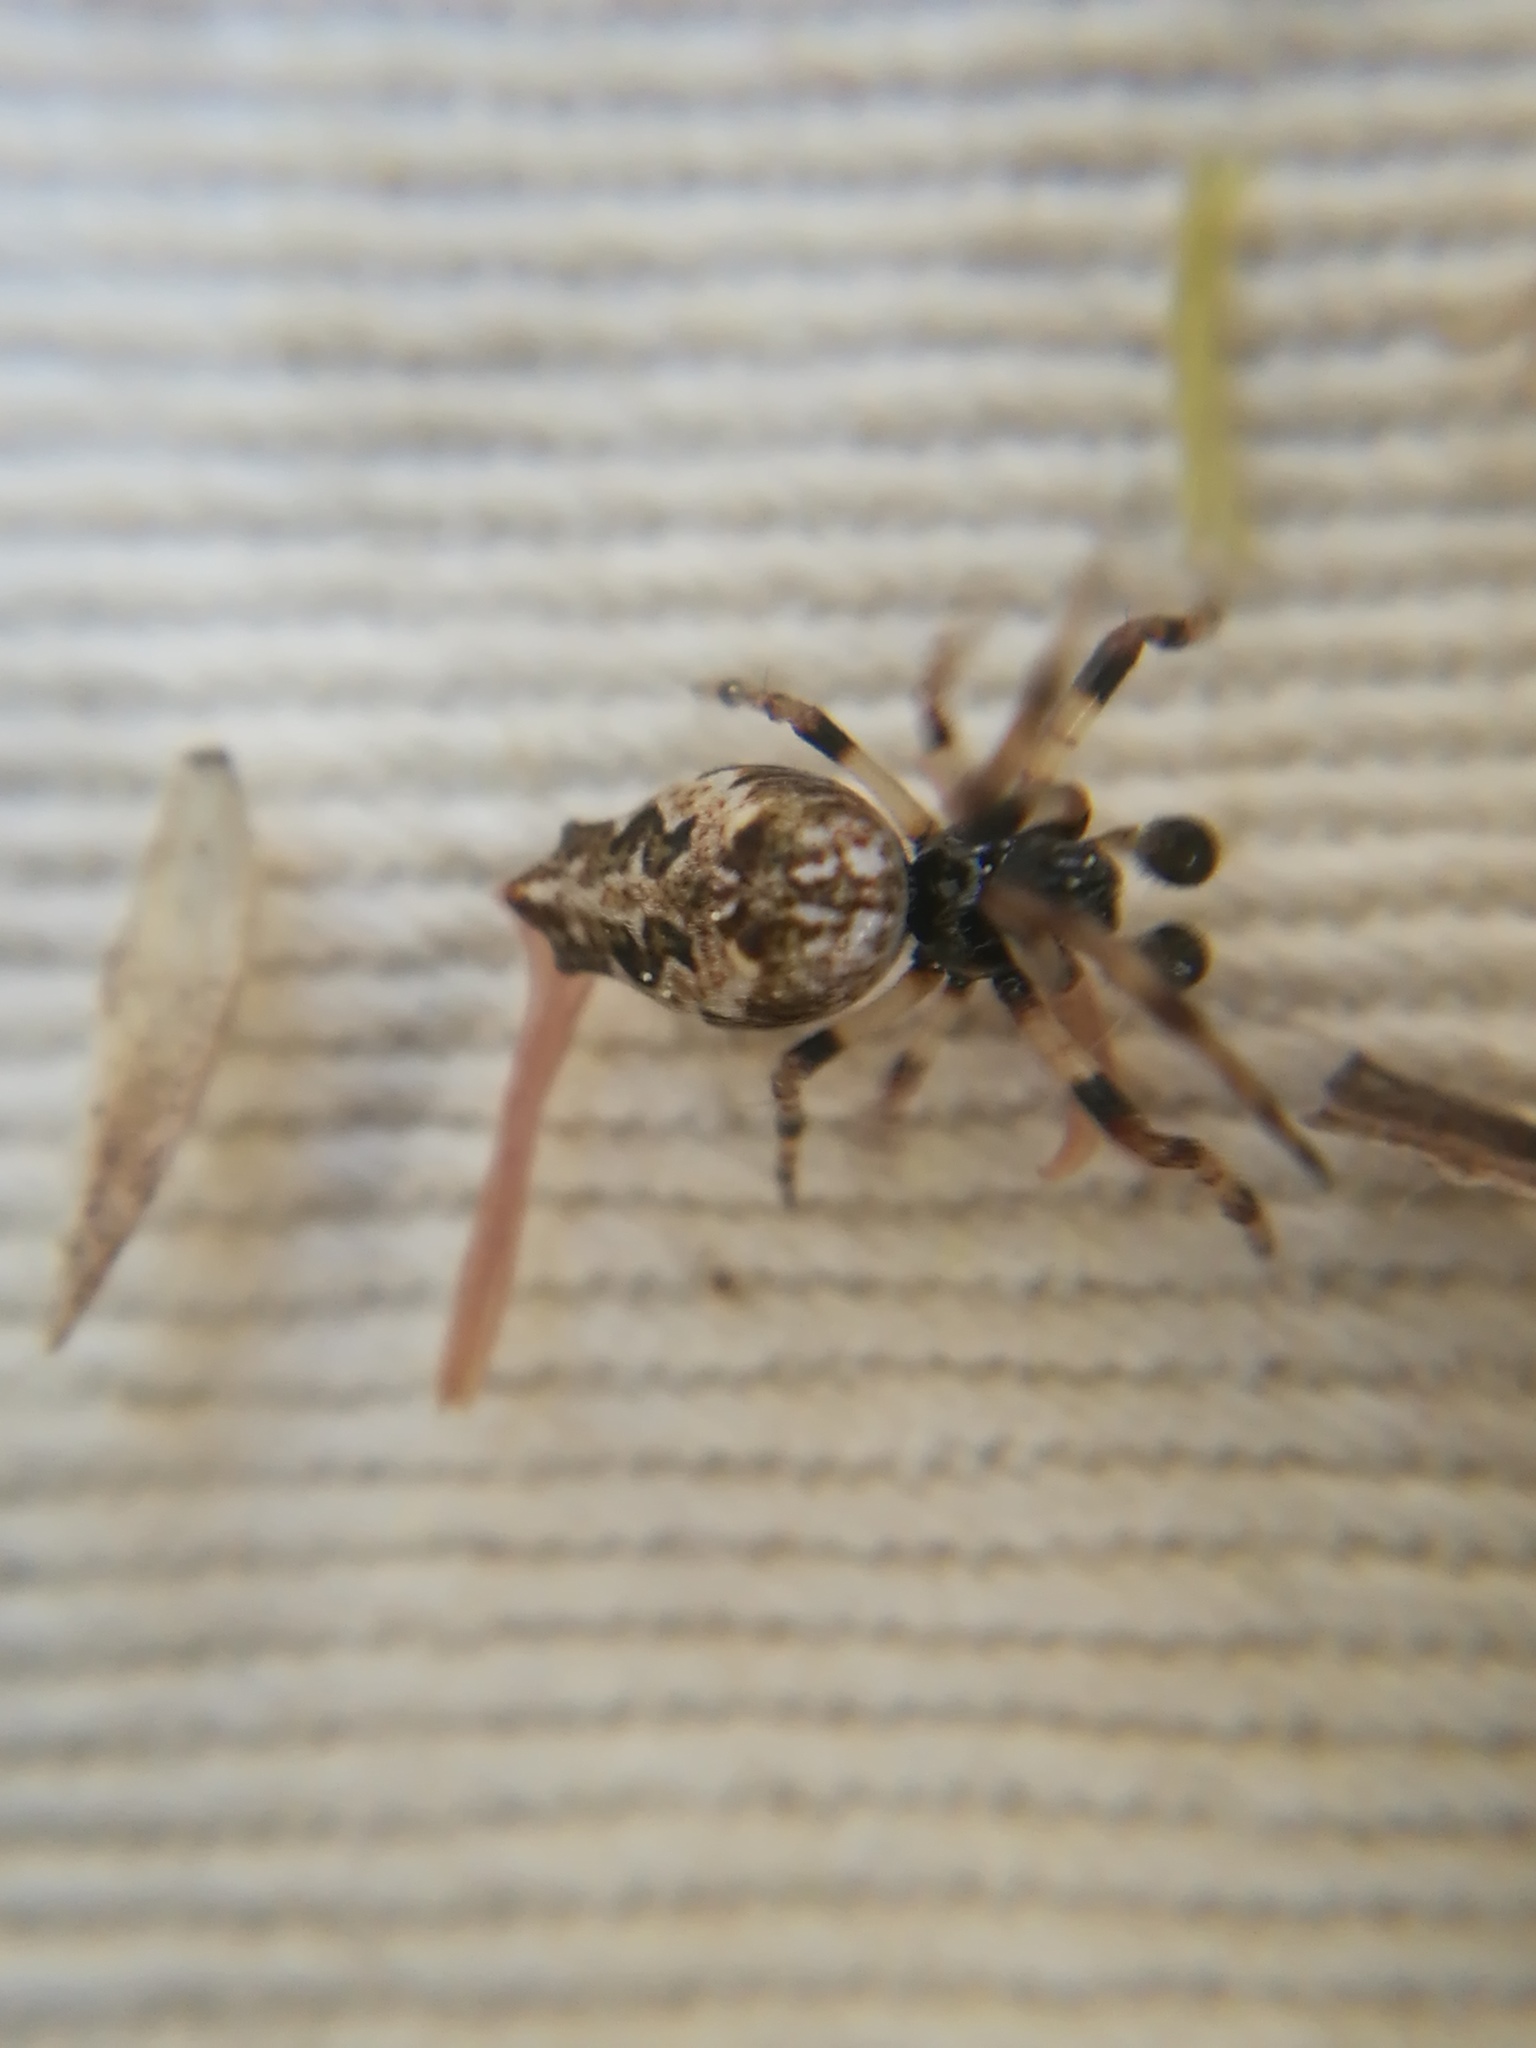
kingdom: Animalia
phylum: Arthropoda
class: Arachnida
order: Araneae
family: Araneidae
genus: Cyclosa
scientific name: Cyclosa oculata
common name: Trashline orbweaver
